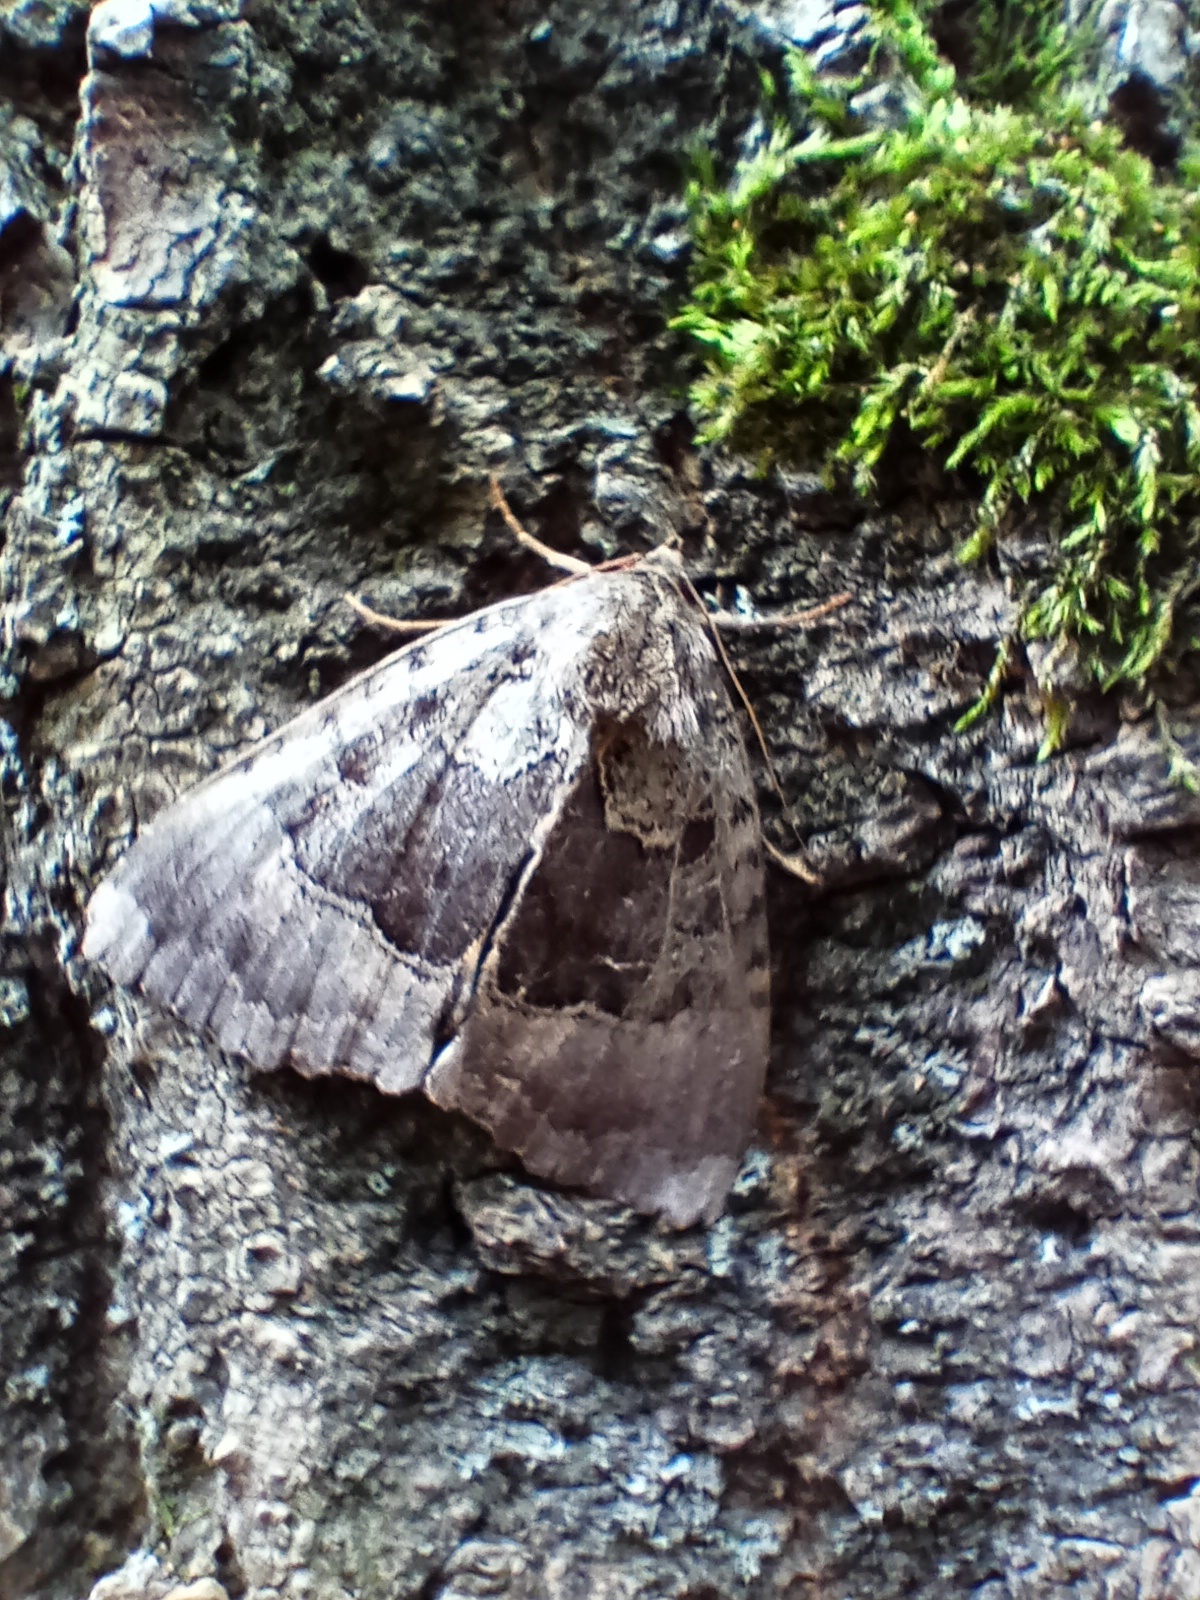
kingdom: Animalia
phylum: Arthropoda
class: Insecta
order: Lepidoptera
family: Noctuidae
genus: Mormo
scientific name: Mormo maura
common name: Old lady
